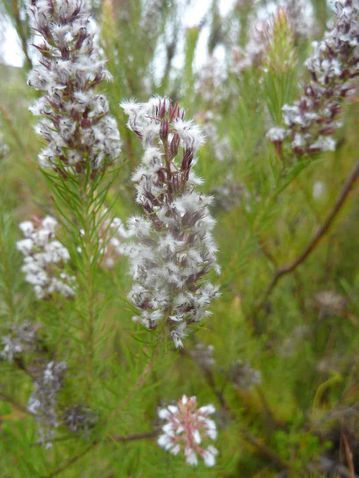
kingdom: Plantae
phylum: Tracheophyta
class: Magnoliopsida
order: Proteales
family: Proteaceae
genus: Spatalla
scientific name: Spatalla parilis
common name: Spike spoon
